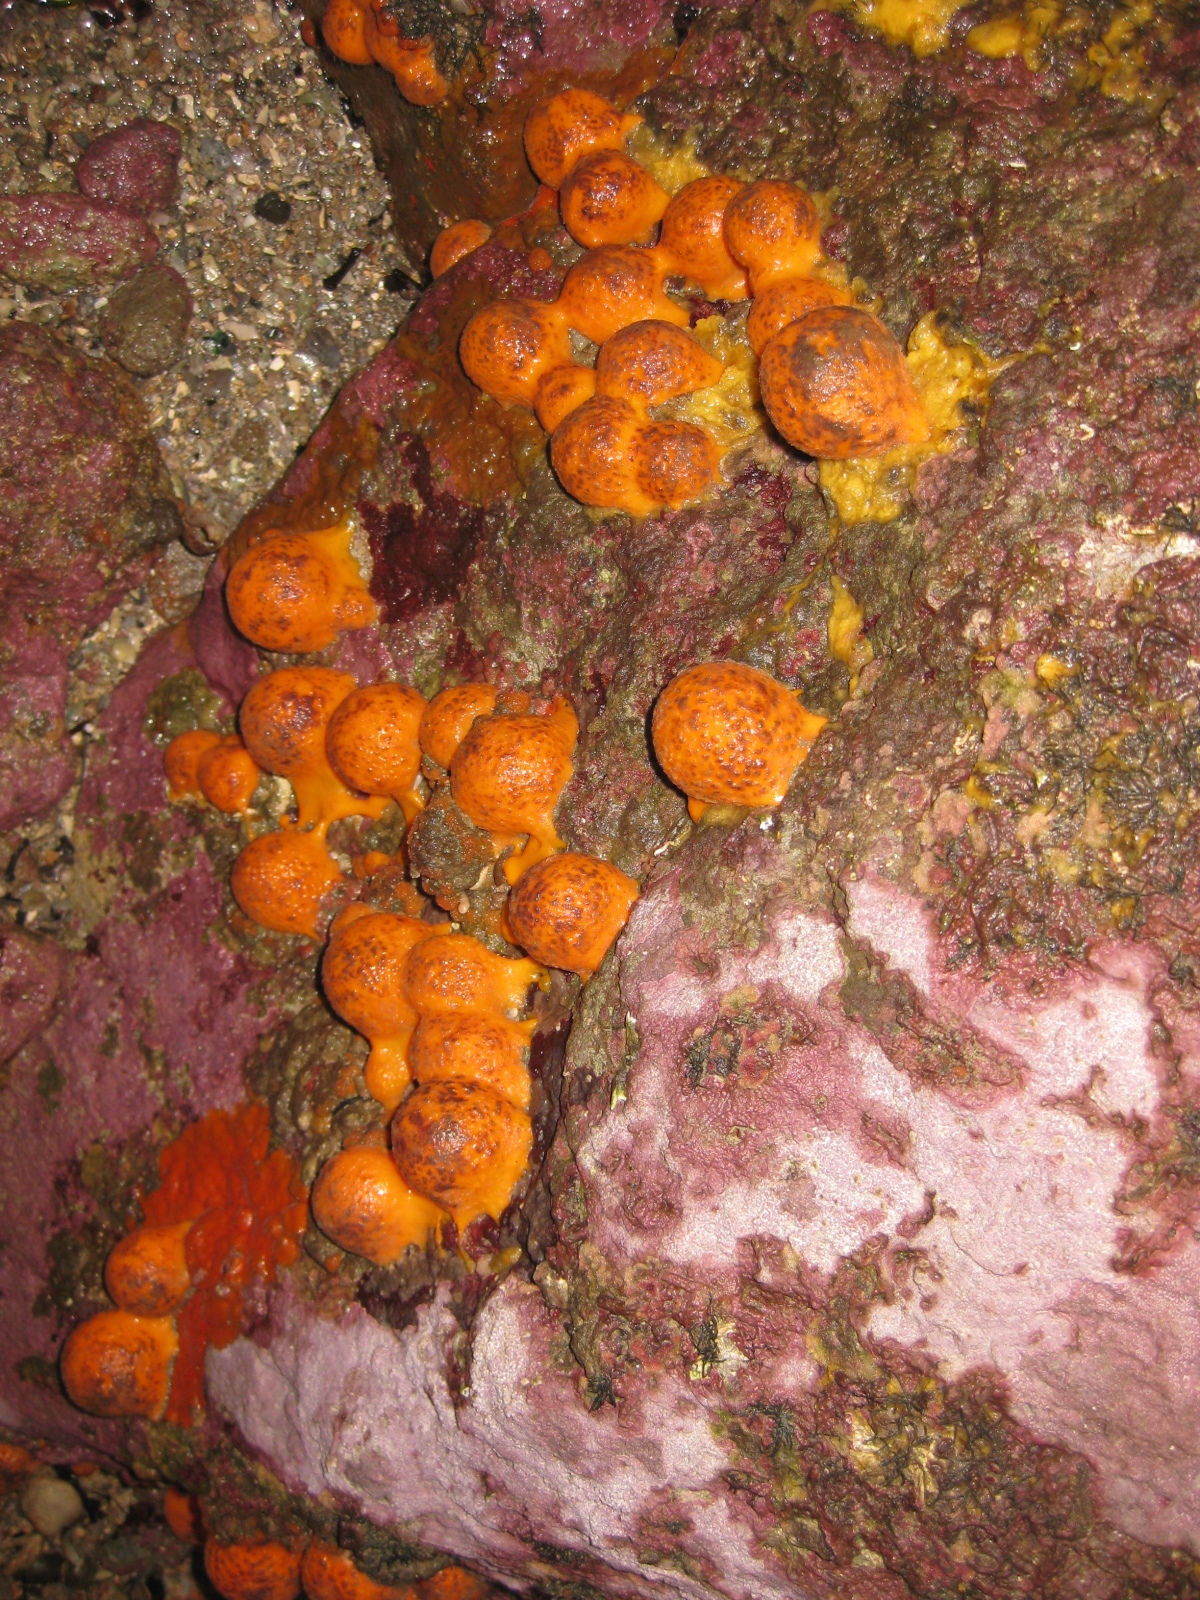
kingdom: Animalia
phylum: Porifera
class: Demospongiae
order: Tethyida
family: Tethyidae
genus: Tethya
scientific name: Tethya burtoni
